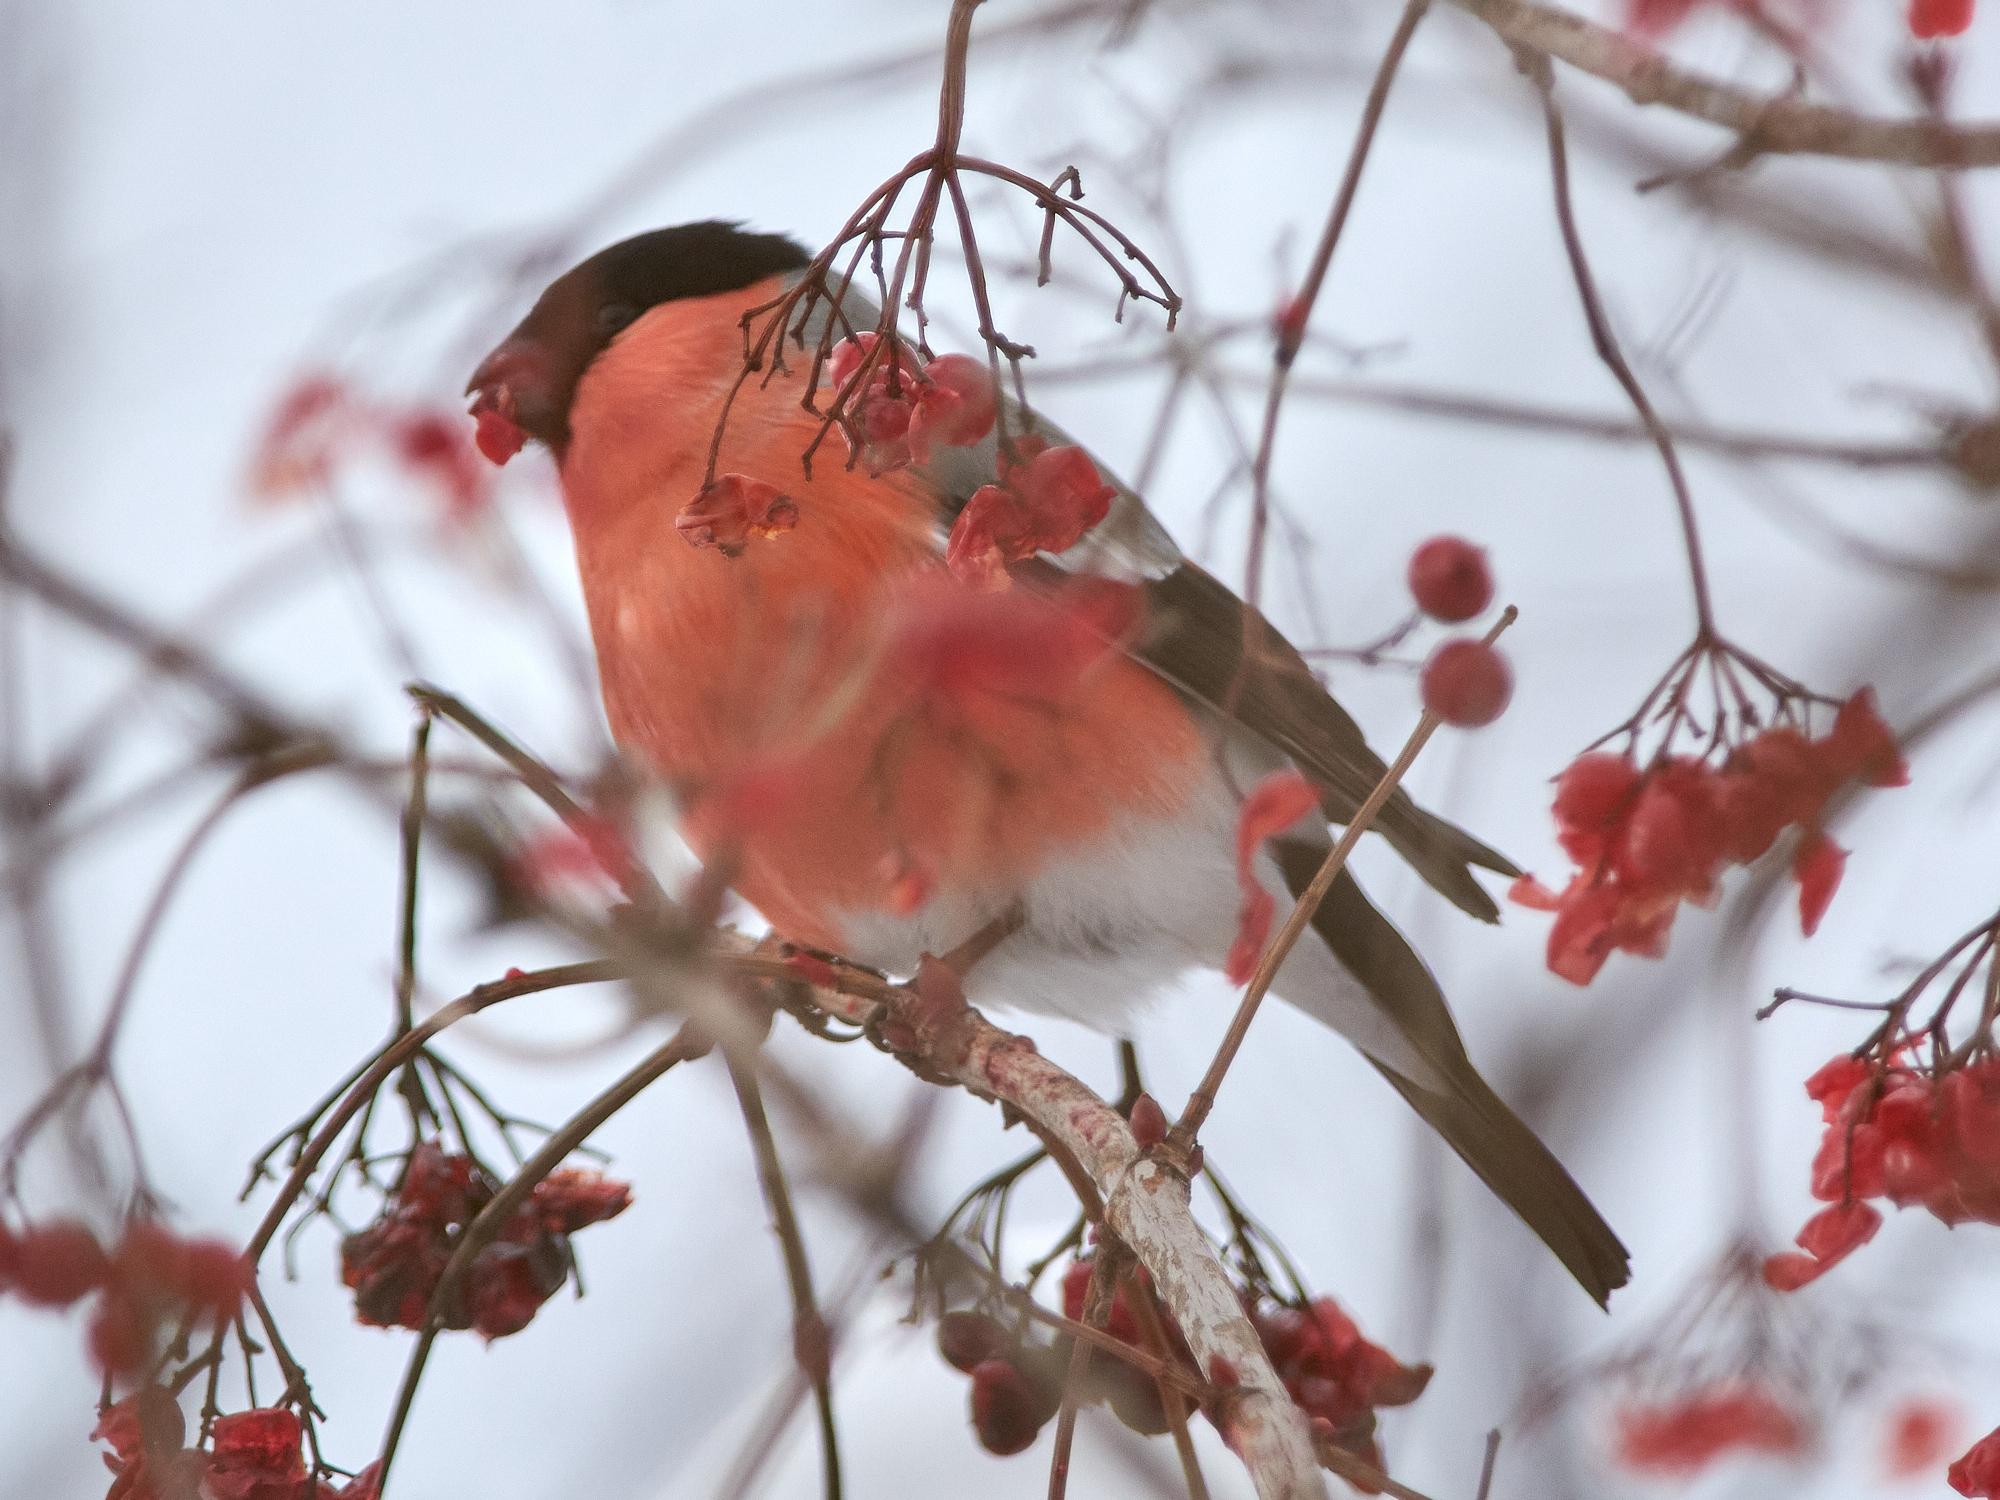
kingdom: Animalia
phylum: Chordata
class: Aves
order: Passeriformes
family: Fringillidae
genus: Pyrrhula
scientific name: Pyrrhula pyrrhula
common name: Eurasian bullfinch
